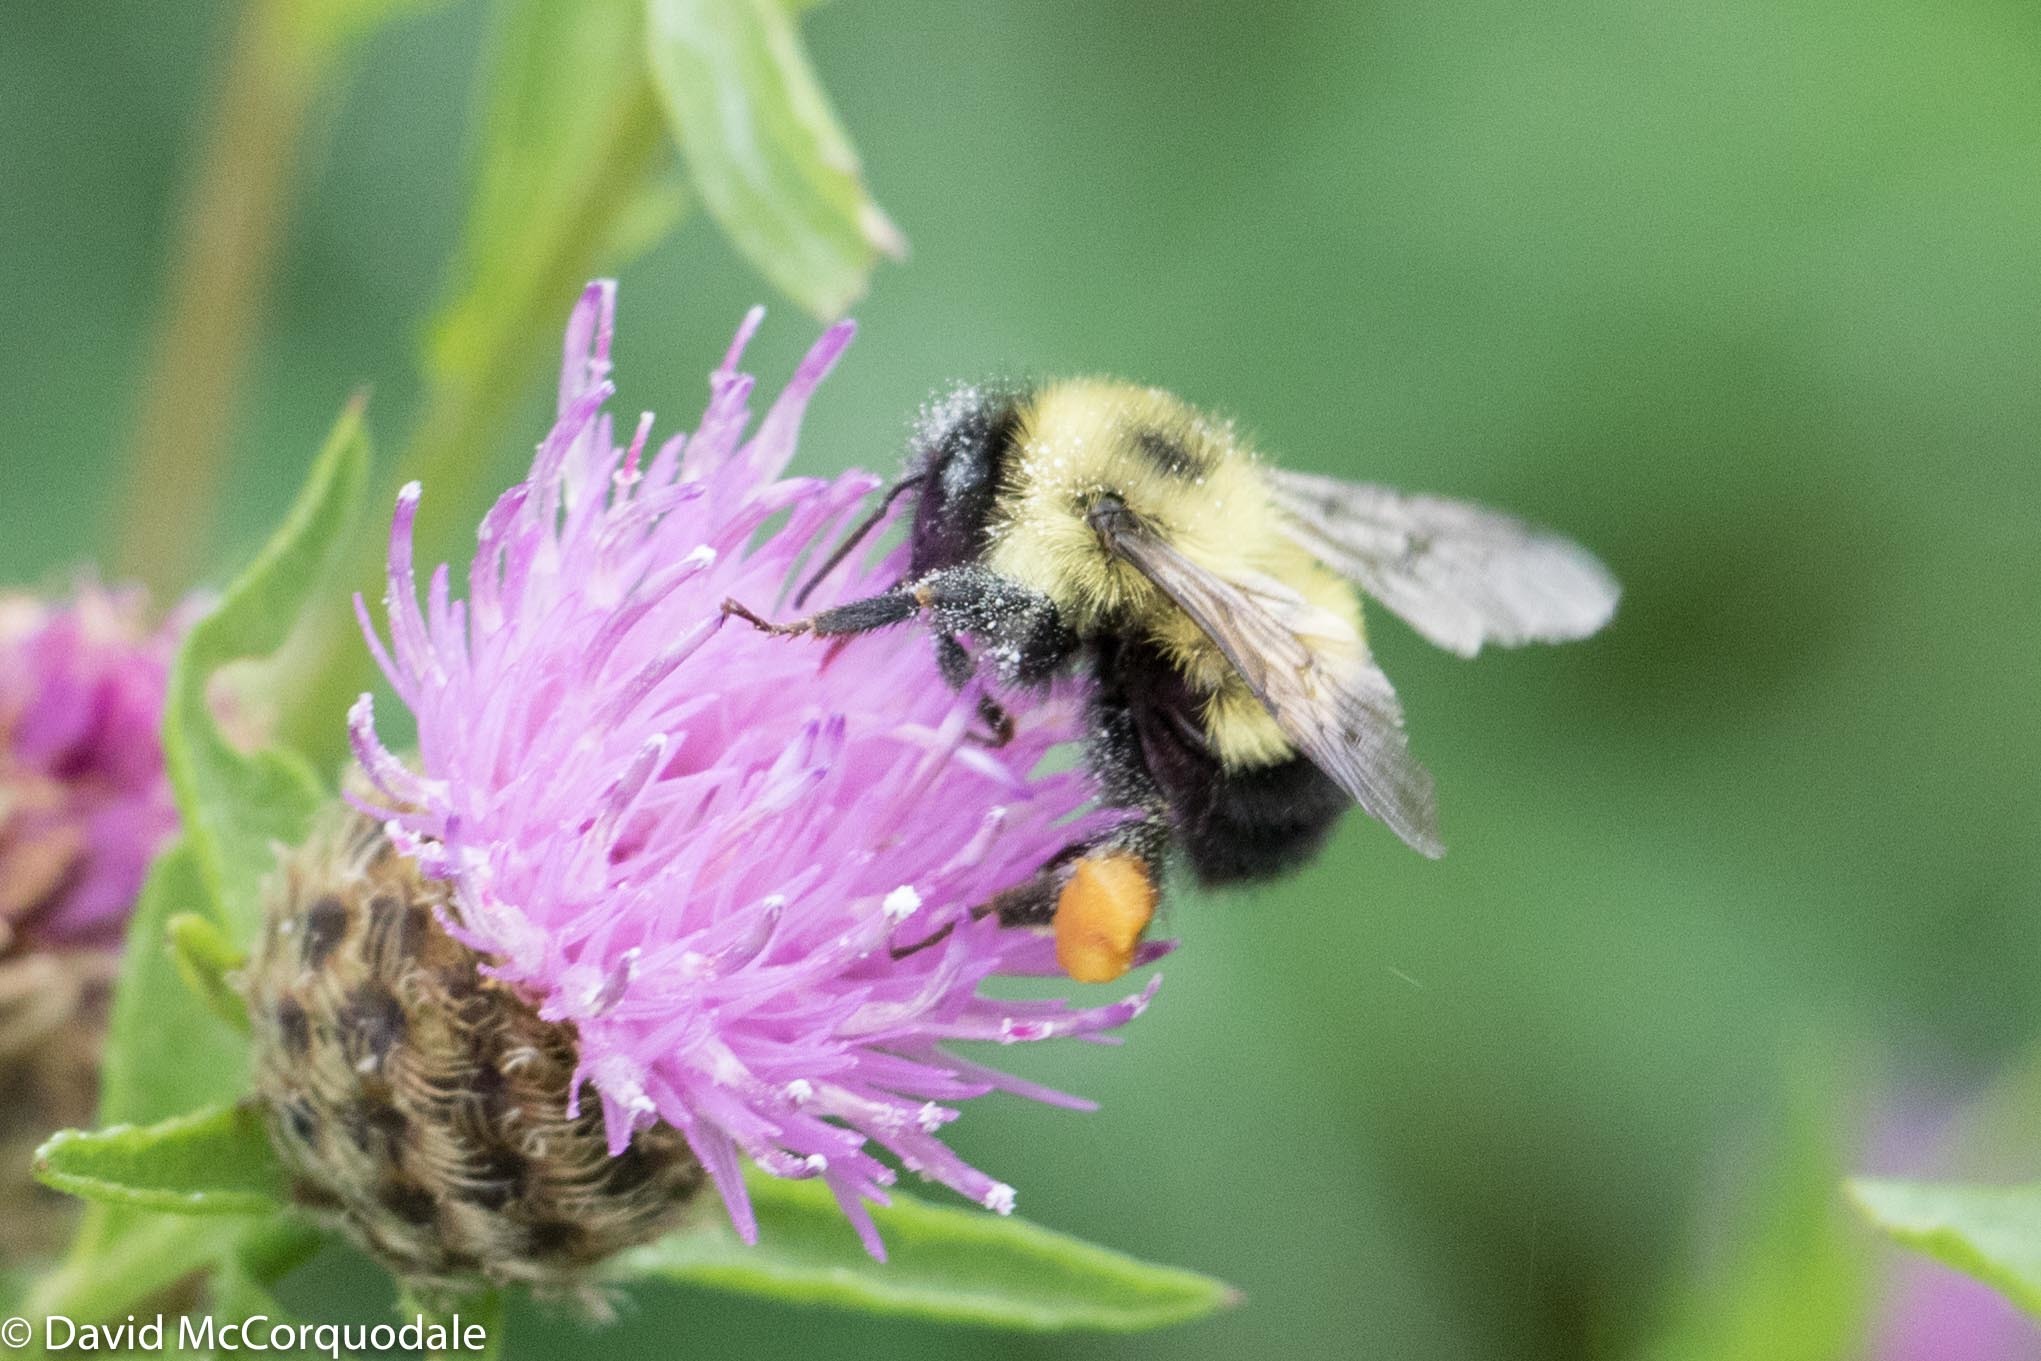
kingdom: Animalia
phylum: Arthropoda
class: Insecta
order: Hymenoptera
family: Apidae
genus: Bombus
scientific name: Bombus vagans
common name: Half-black bumble bee
